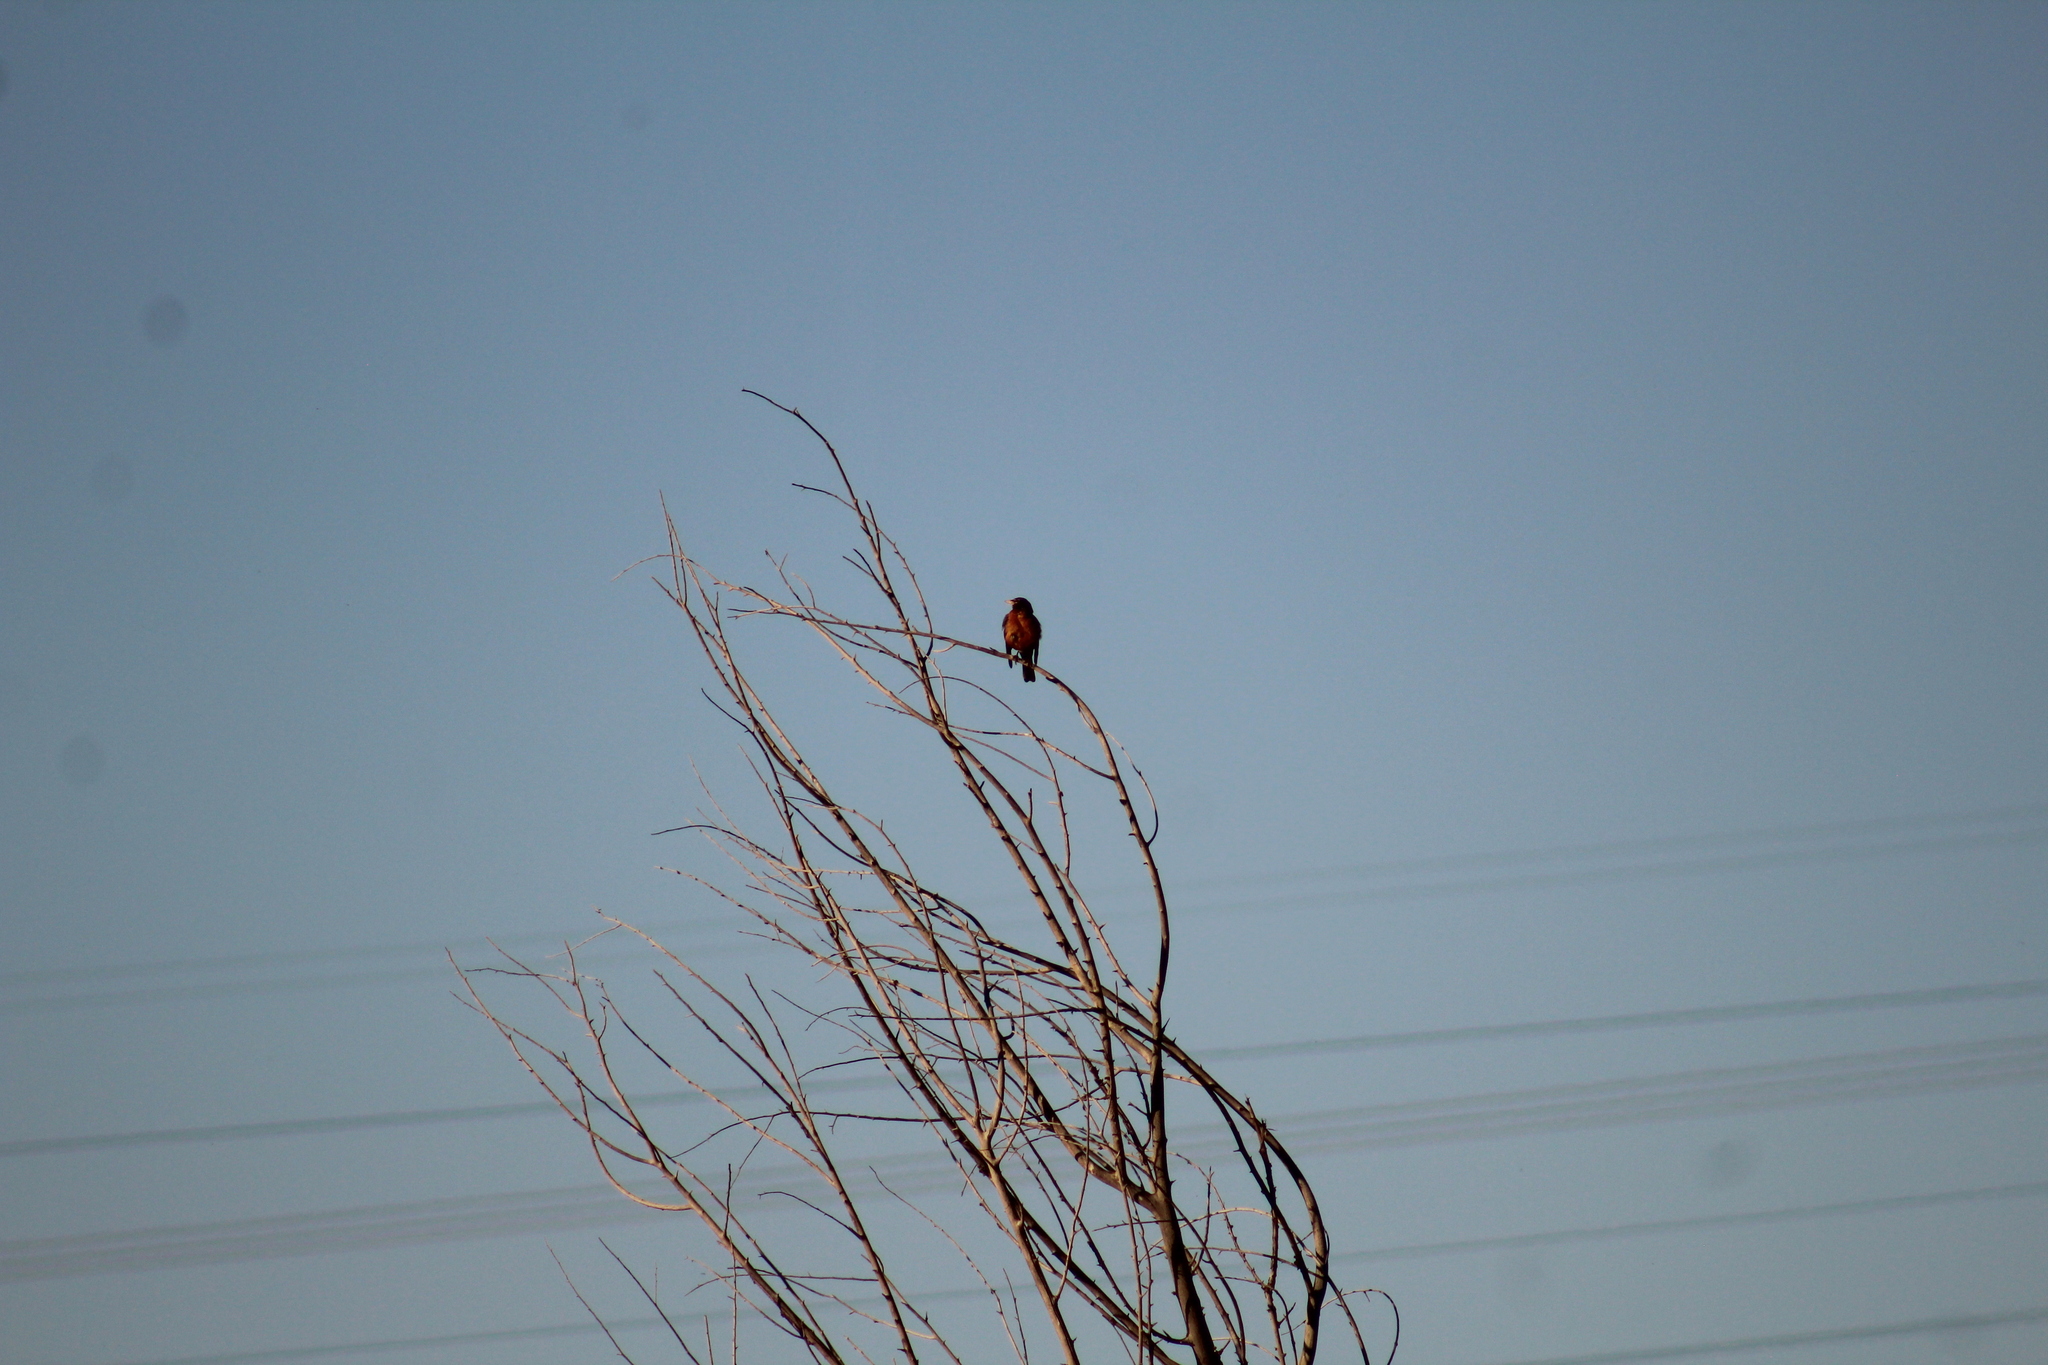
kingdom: Animalia
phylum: Chordata
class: Aves
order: Passeriformes
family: Turdidae
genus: Turdus
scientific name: Turdus migratorius
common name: American robin
